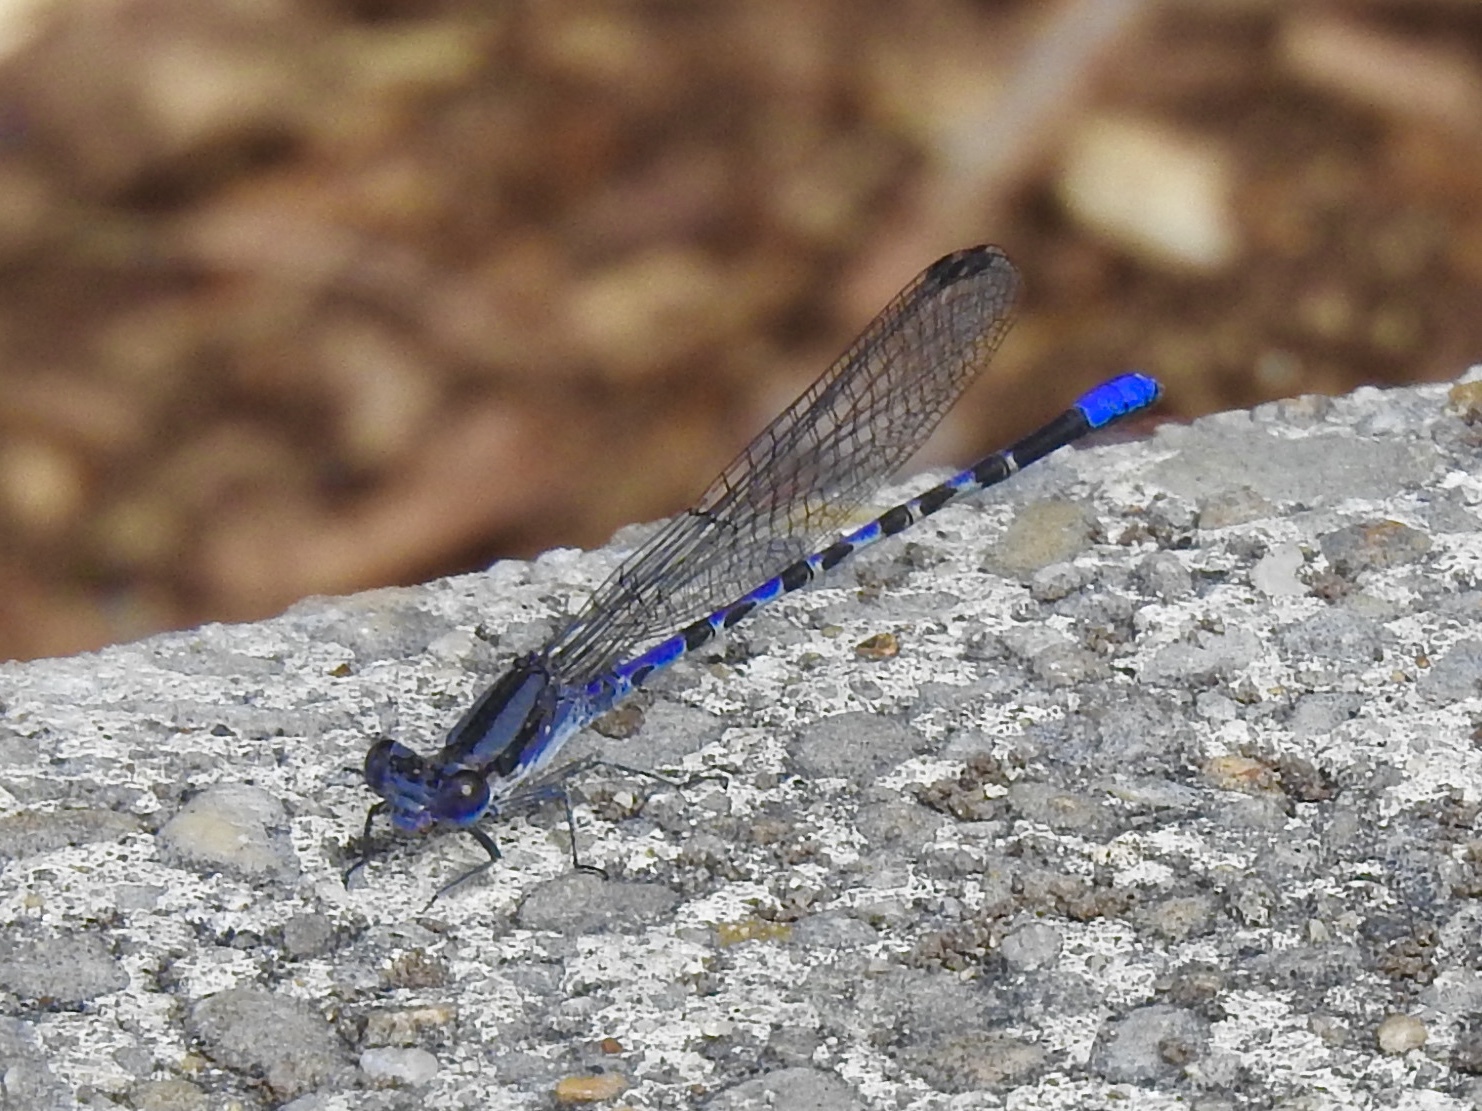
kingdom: Animalia
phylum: Arthropoda
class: Insecta
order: Odonata
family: Coenagrionidae
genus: Argia
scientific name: Argia immunda
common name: Kiowa dancer
